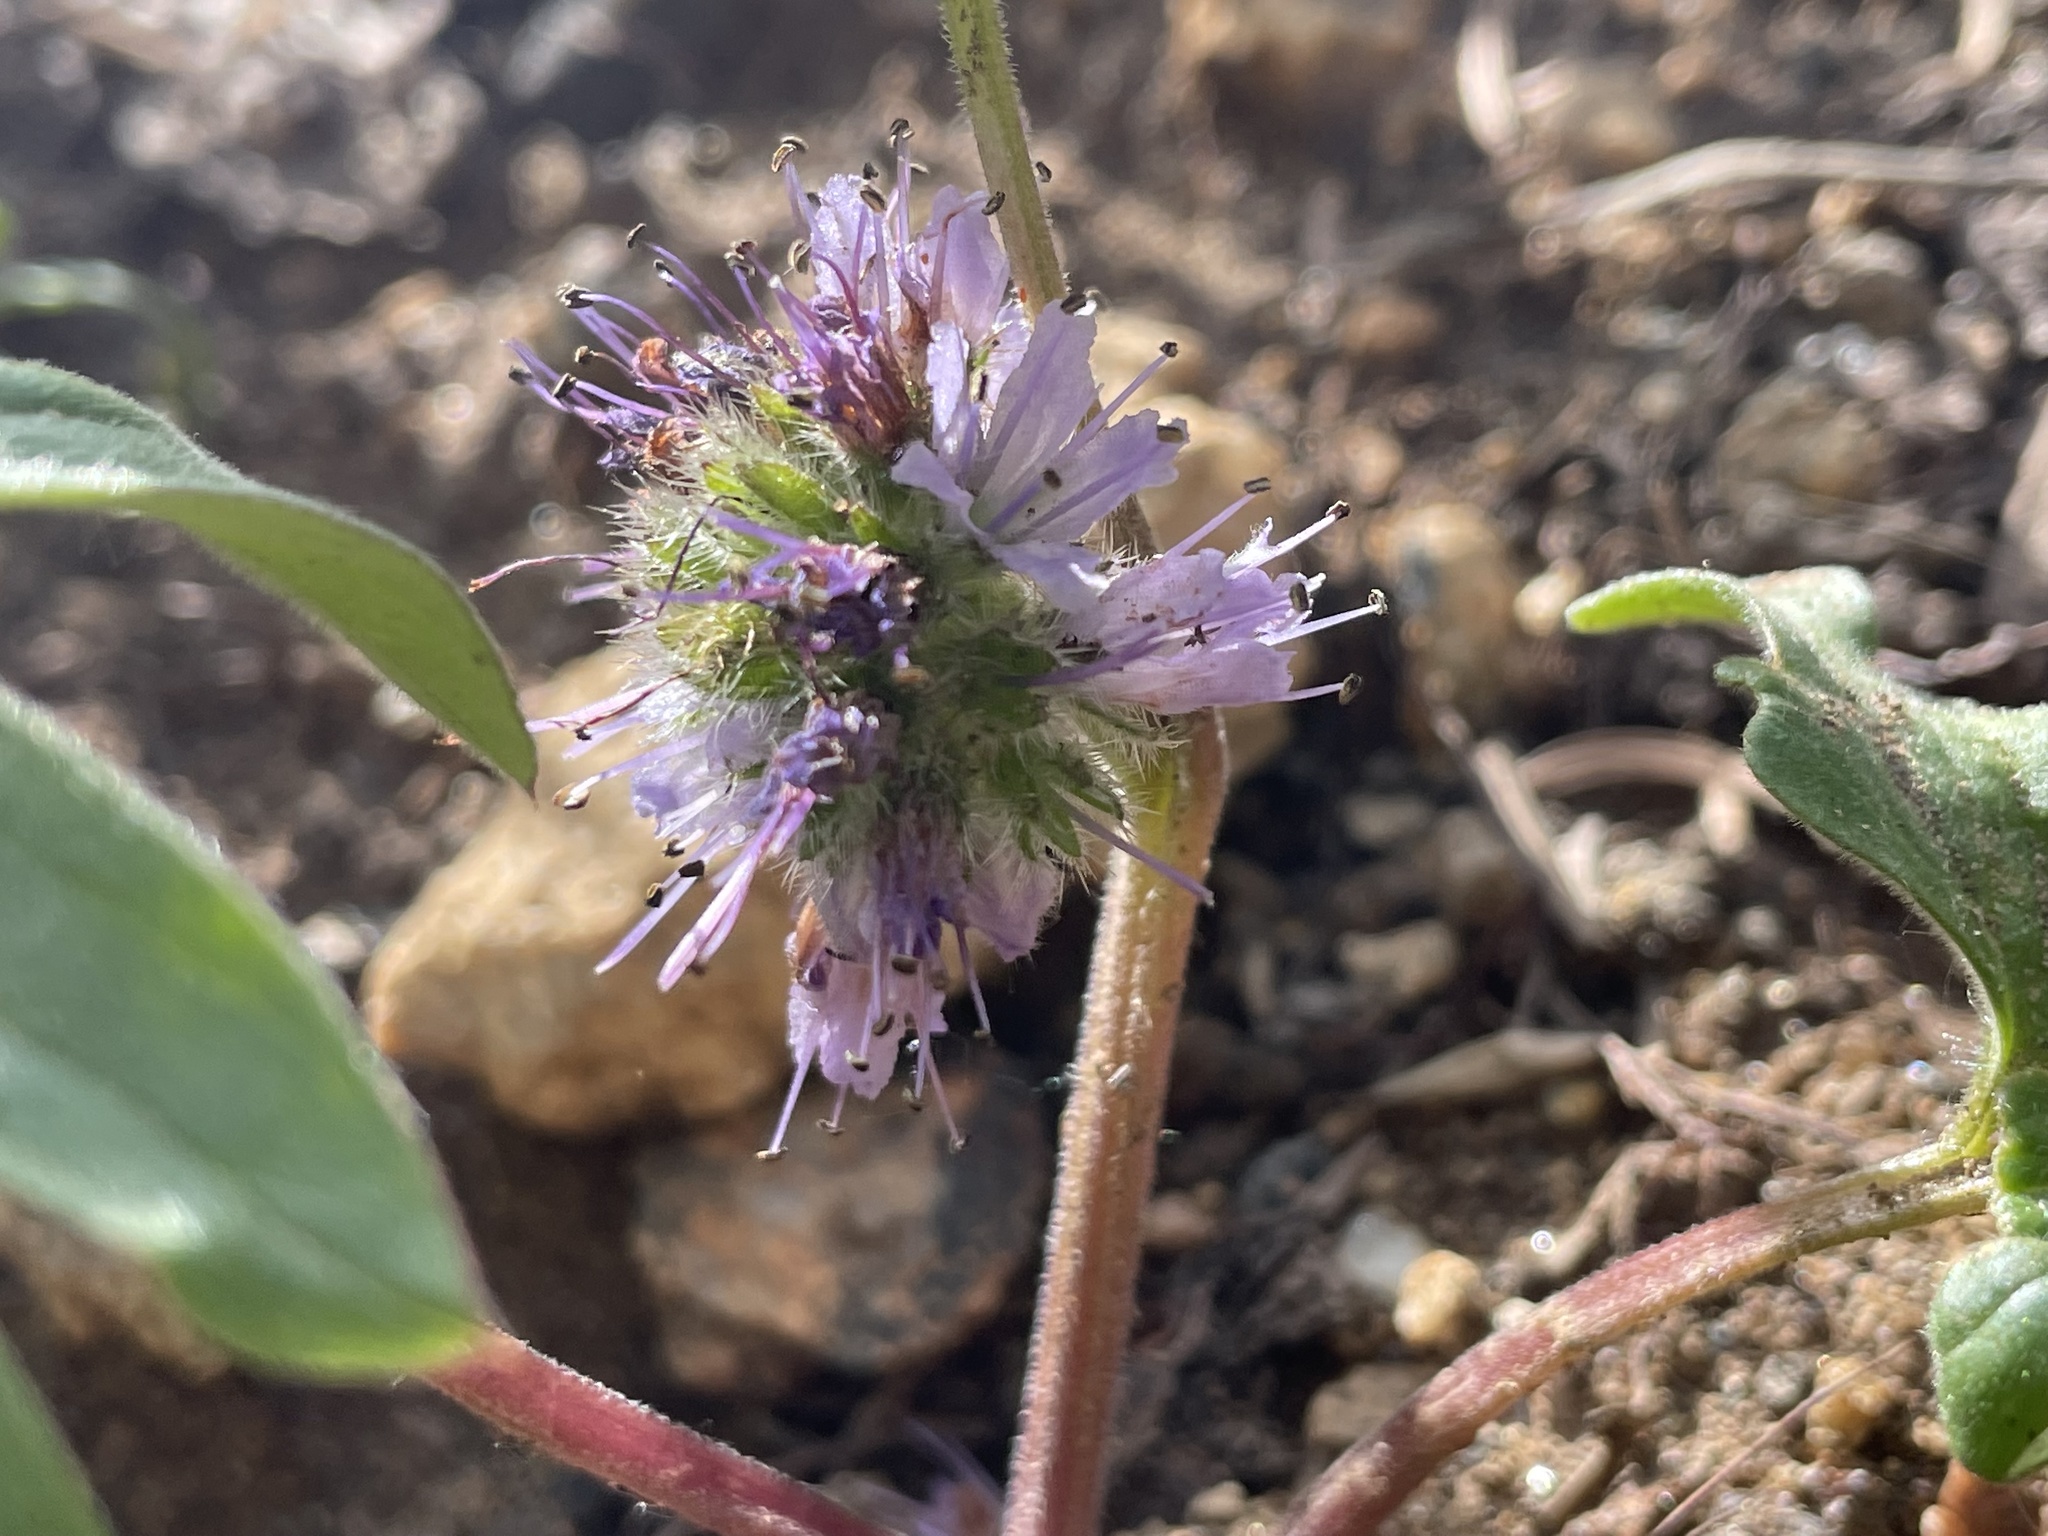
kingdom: Plantae
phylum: Tracheophyta
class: Magnoliopsida
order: Boraginales
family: Hydrophyllaceae
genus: Hydrophyllum
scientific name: Hydrophyllum capitatum
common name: Woollen-breeches
